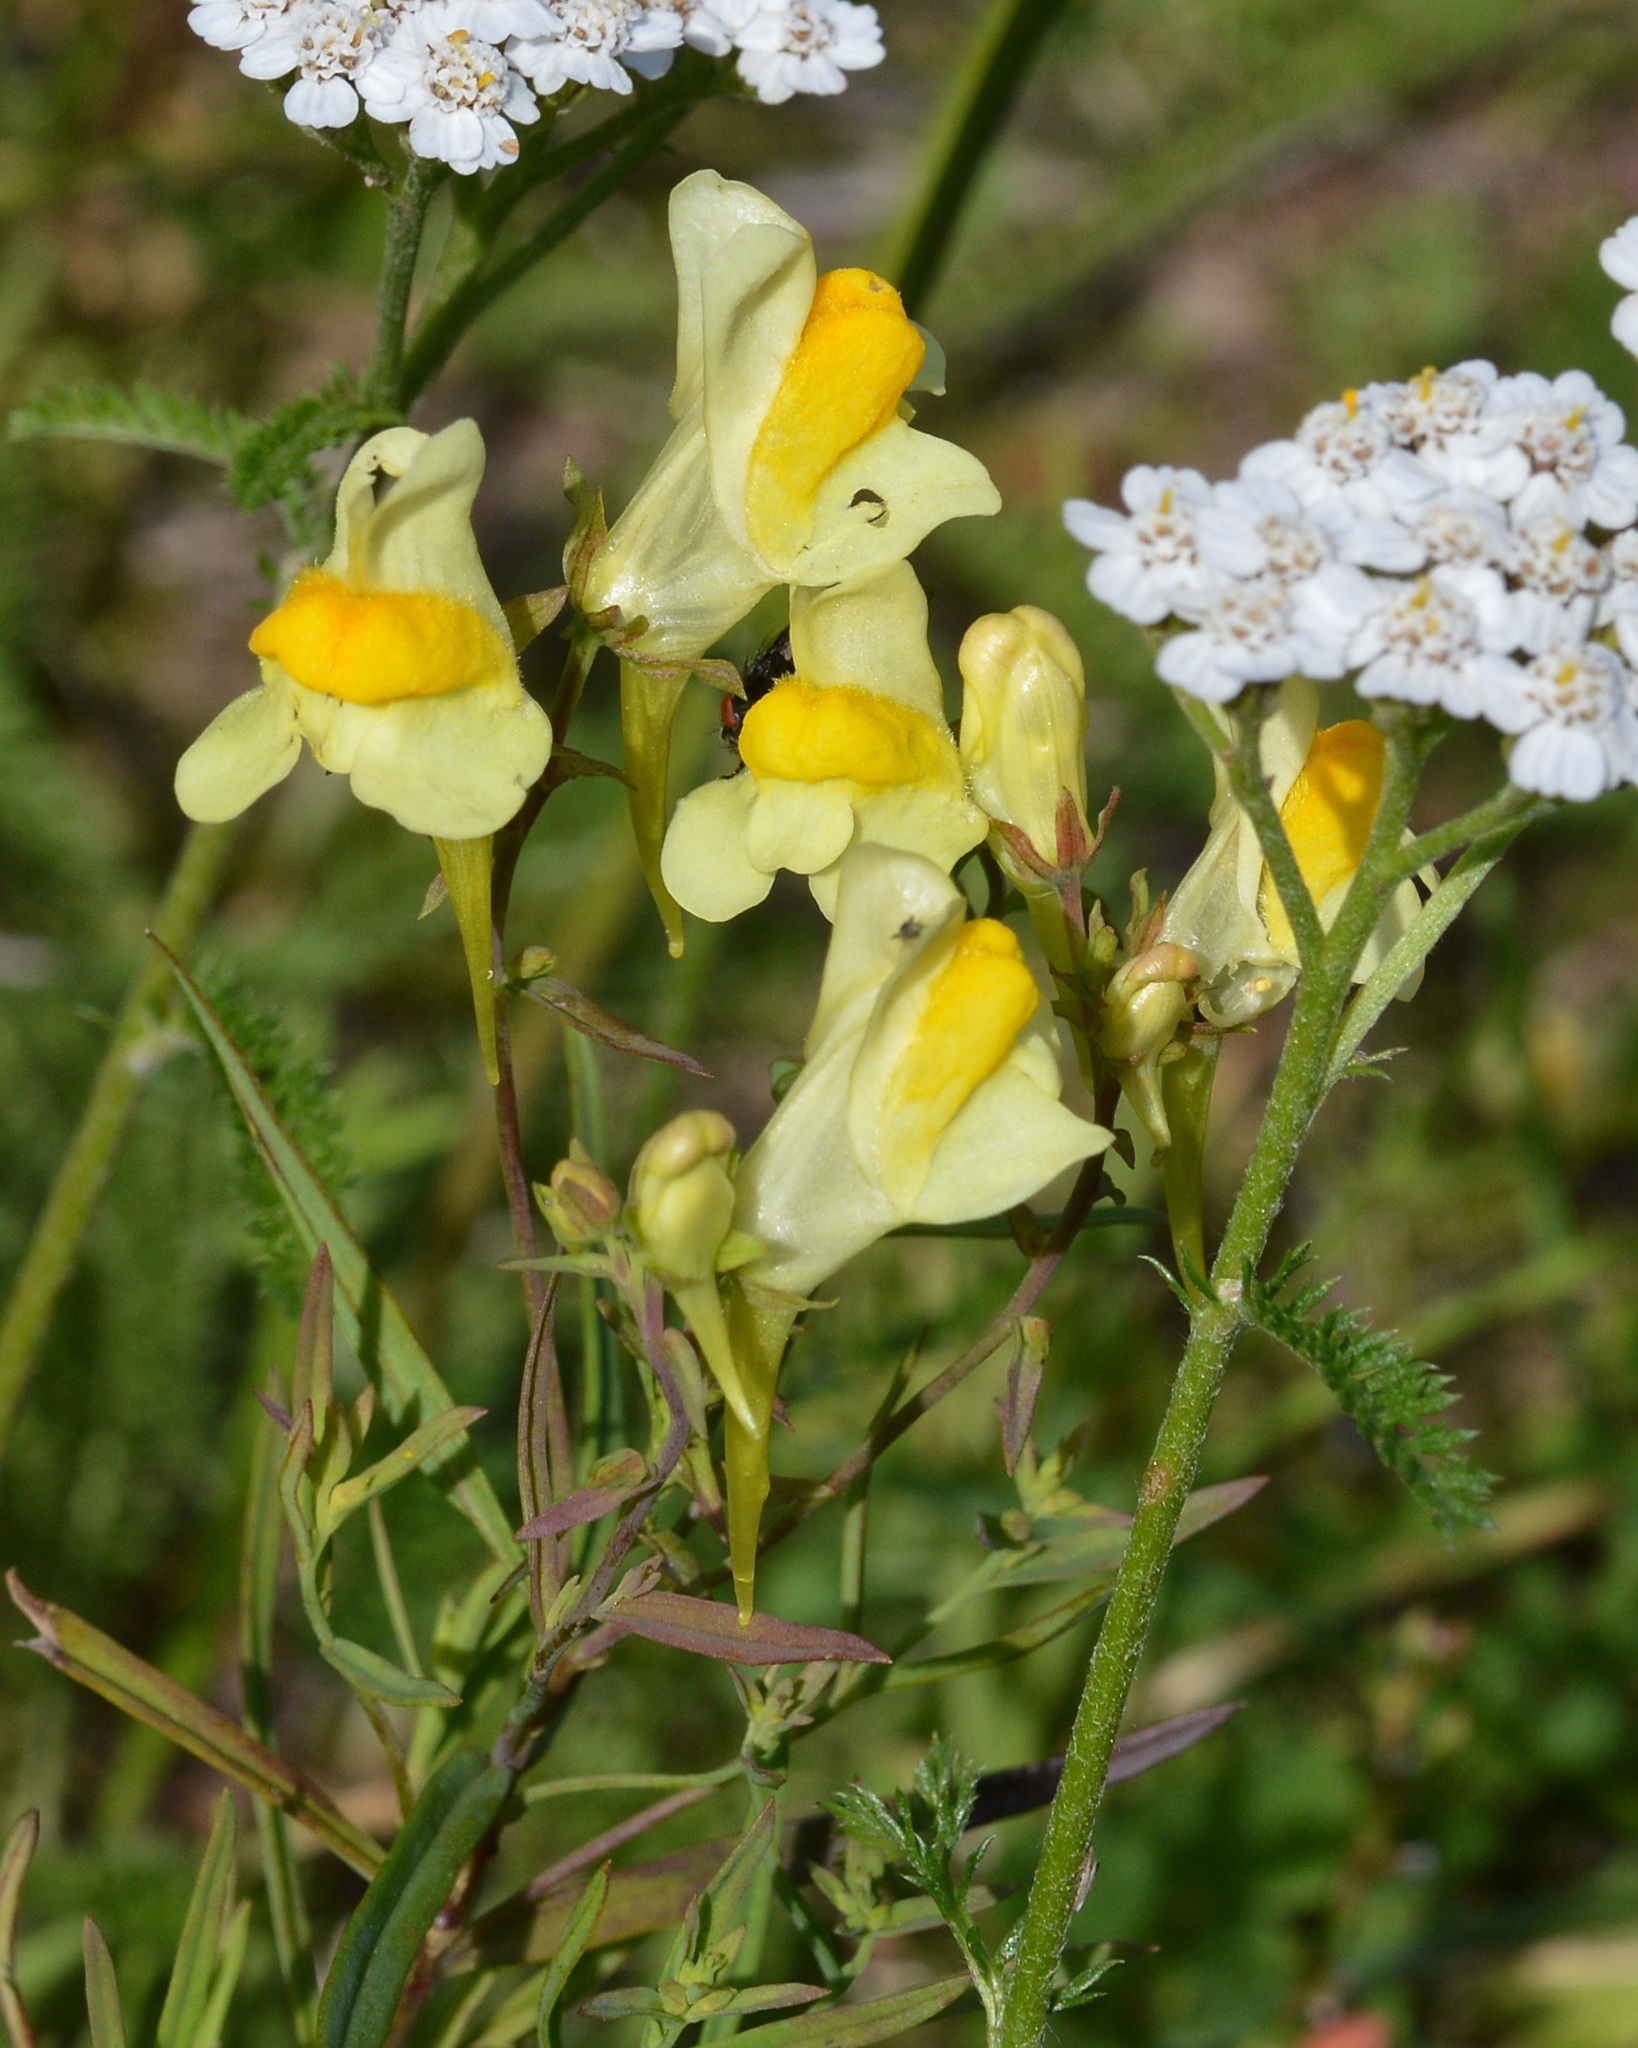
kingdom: Plantae
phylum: Tracheophyta
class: Magnoliopsida
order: Lamiales
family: Plantaginaceae
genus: Linaria
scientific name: Linaria vulgaris
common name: Butter and eggs
